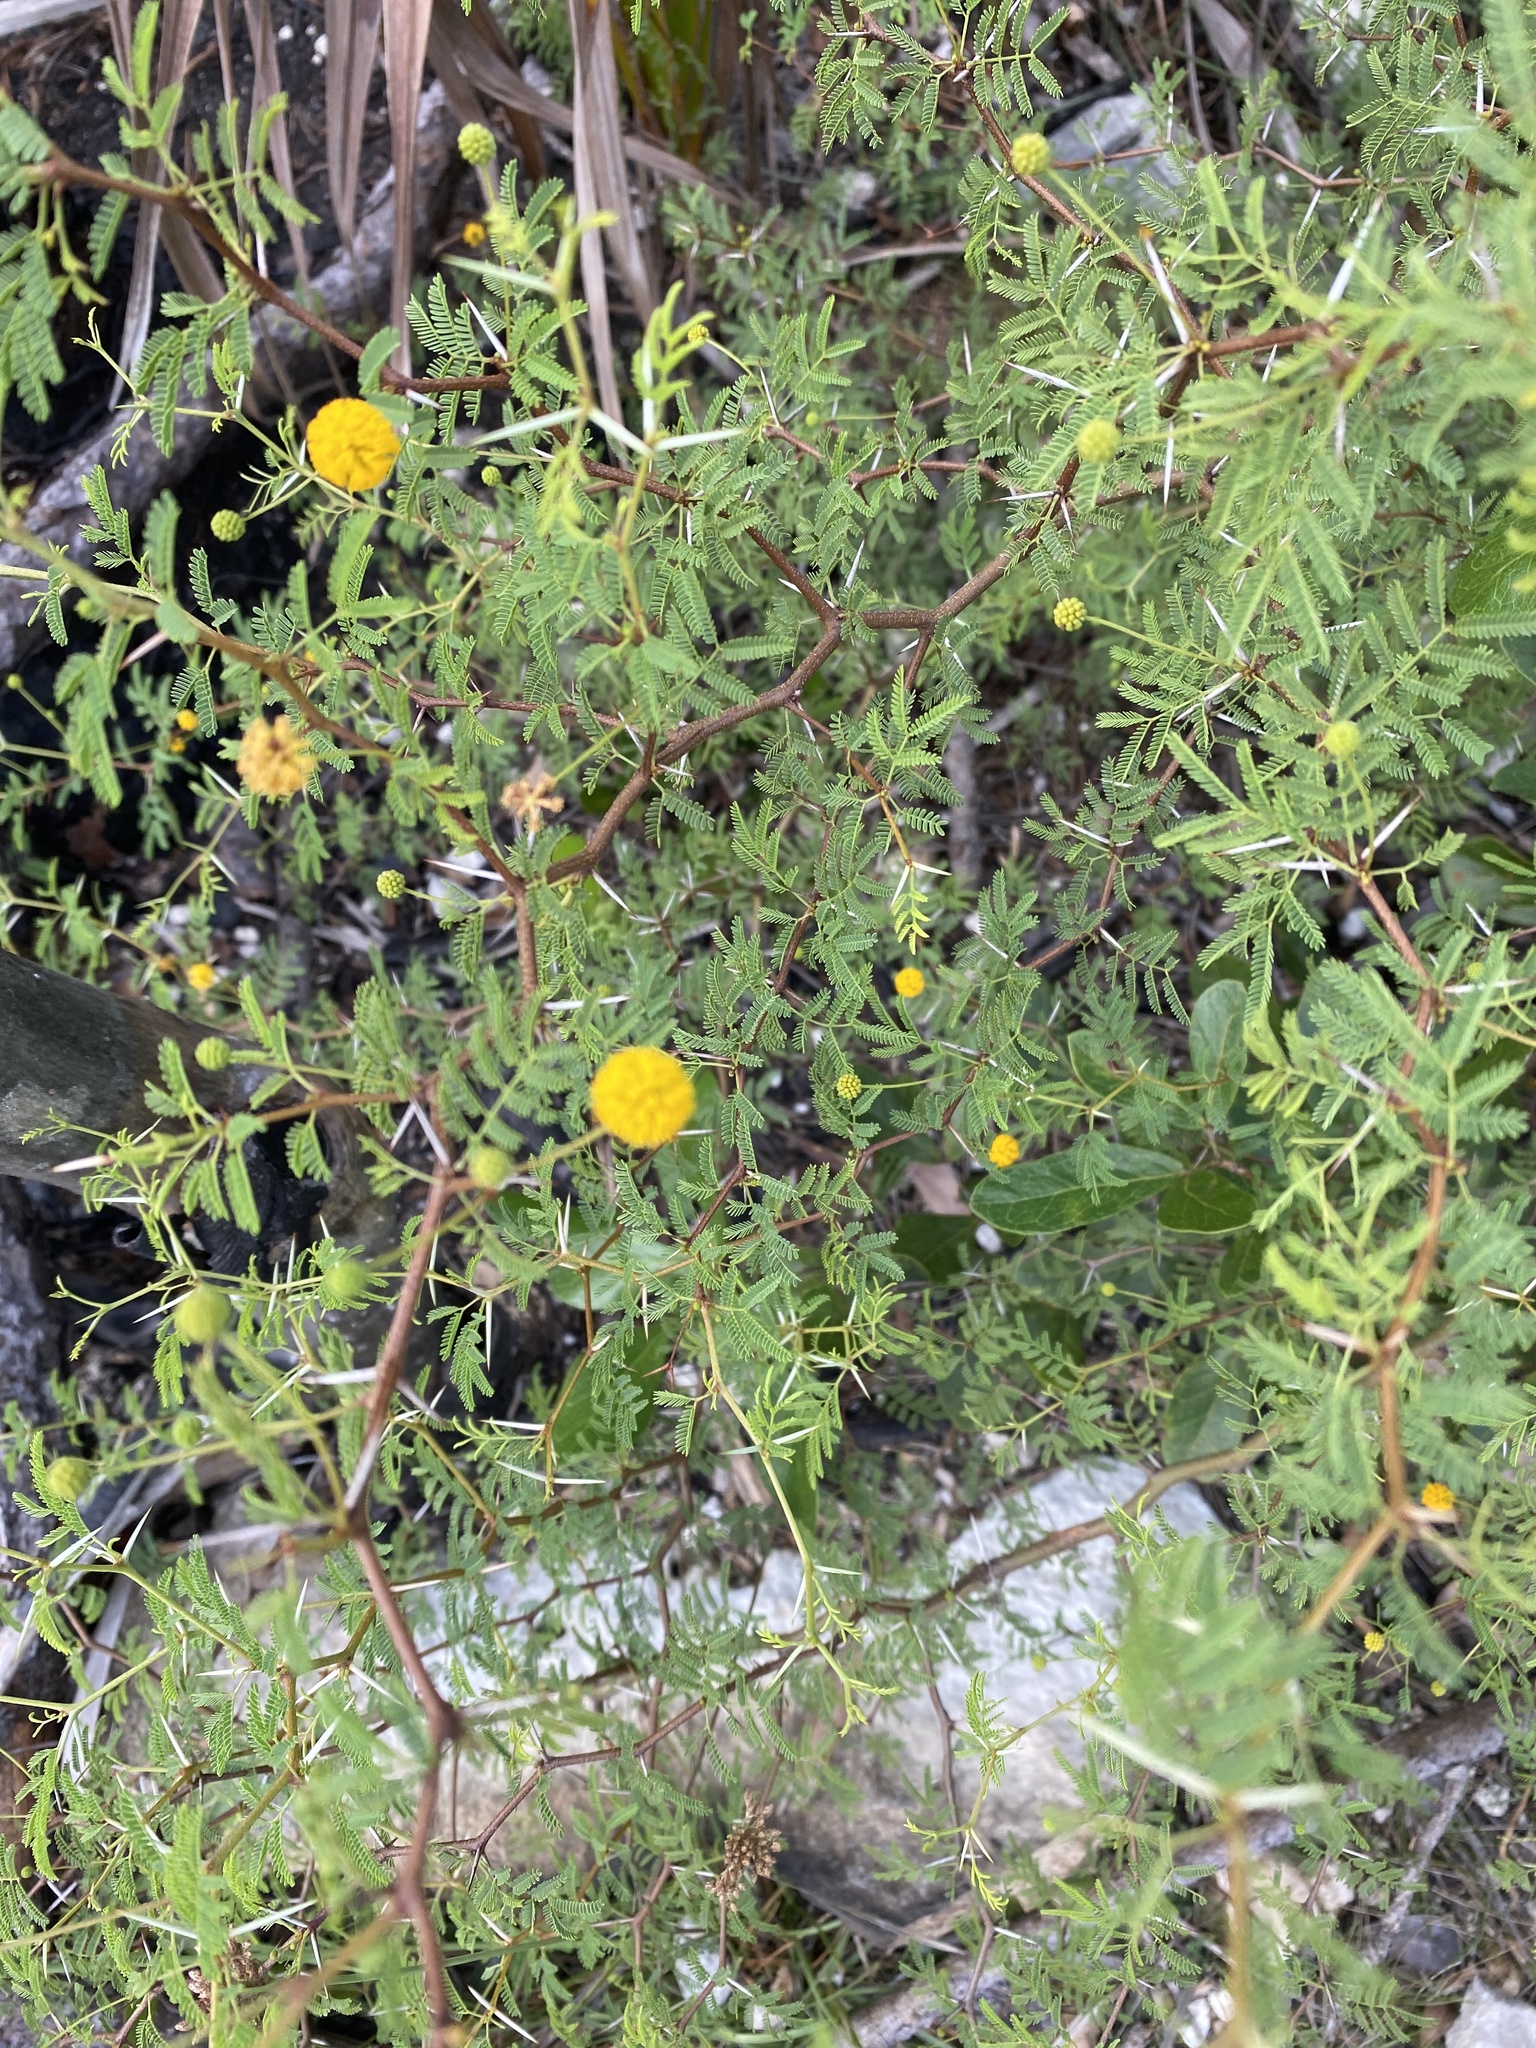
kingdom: Plantae
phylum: Tracheophyta
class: Magnoliopsida
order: Fabales
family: Fabaceae
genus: Vachellia
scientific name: Vachellia farnesiana
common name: Sweet acacia
